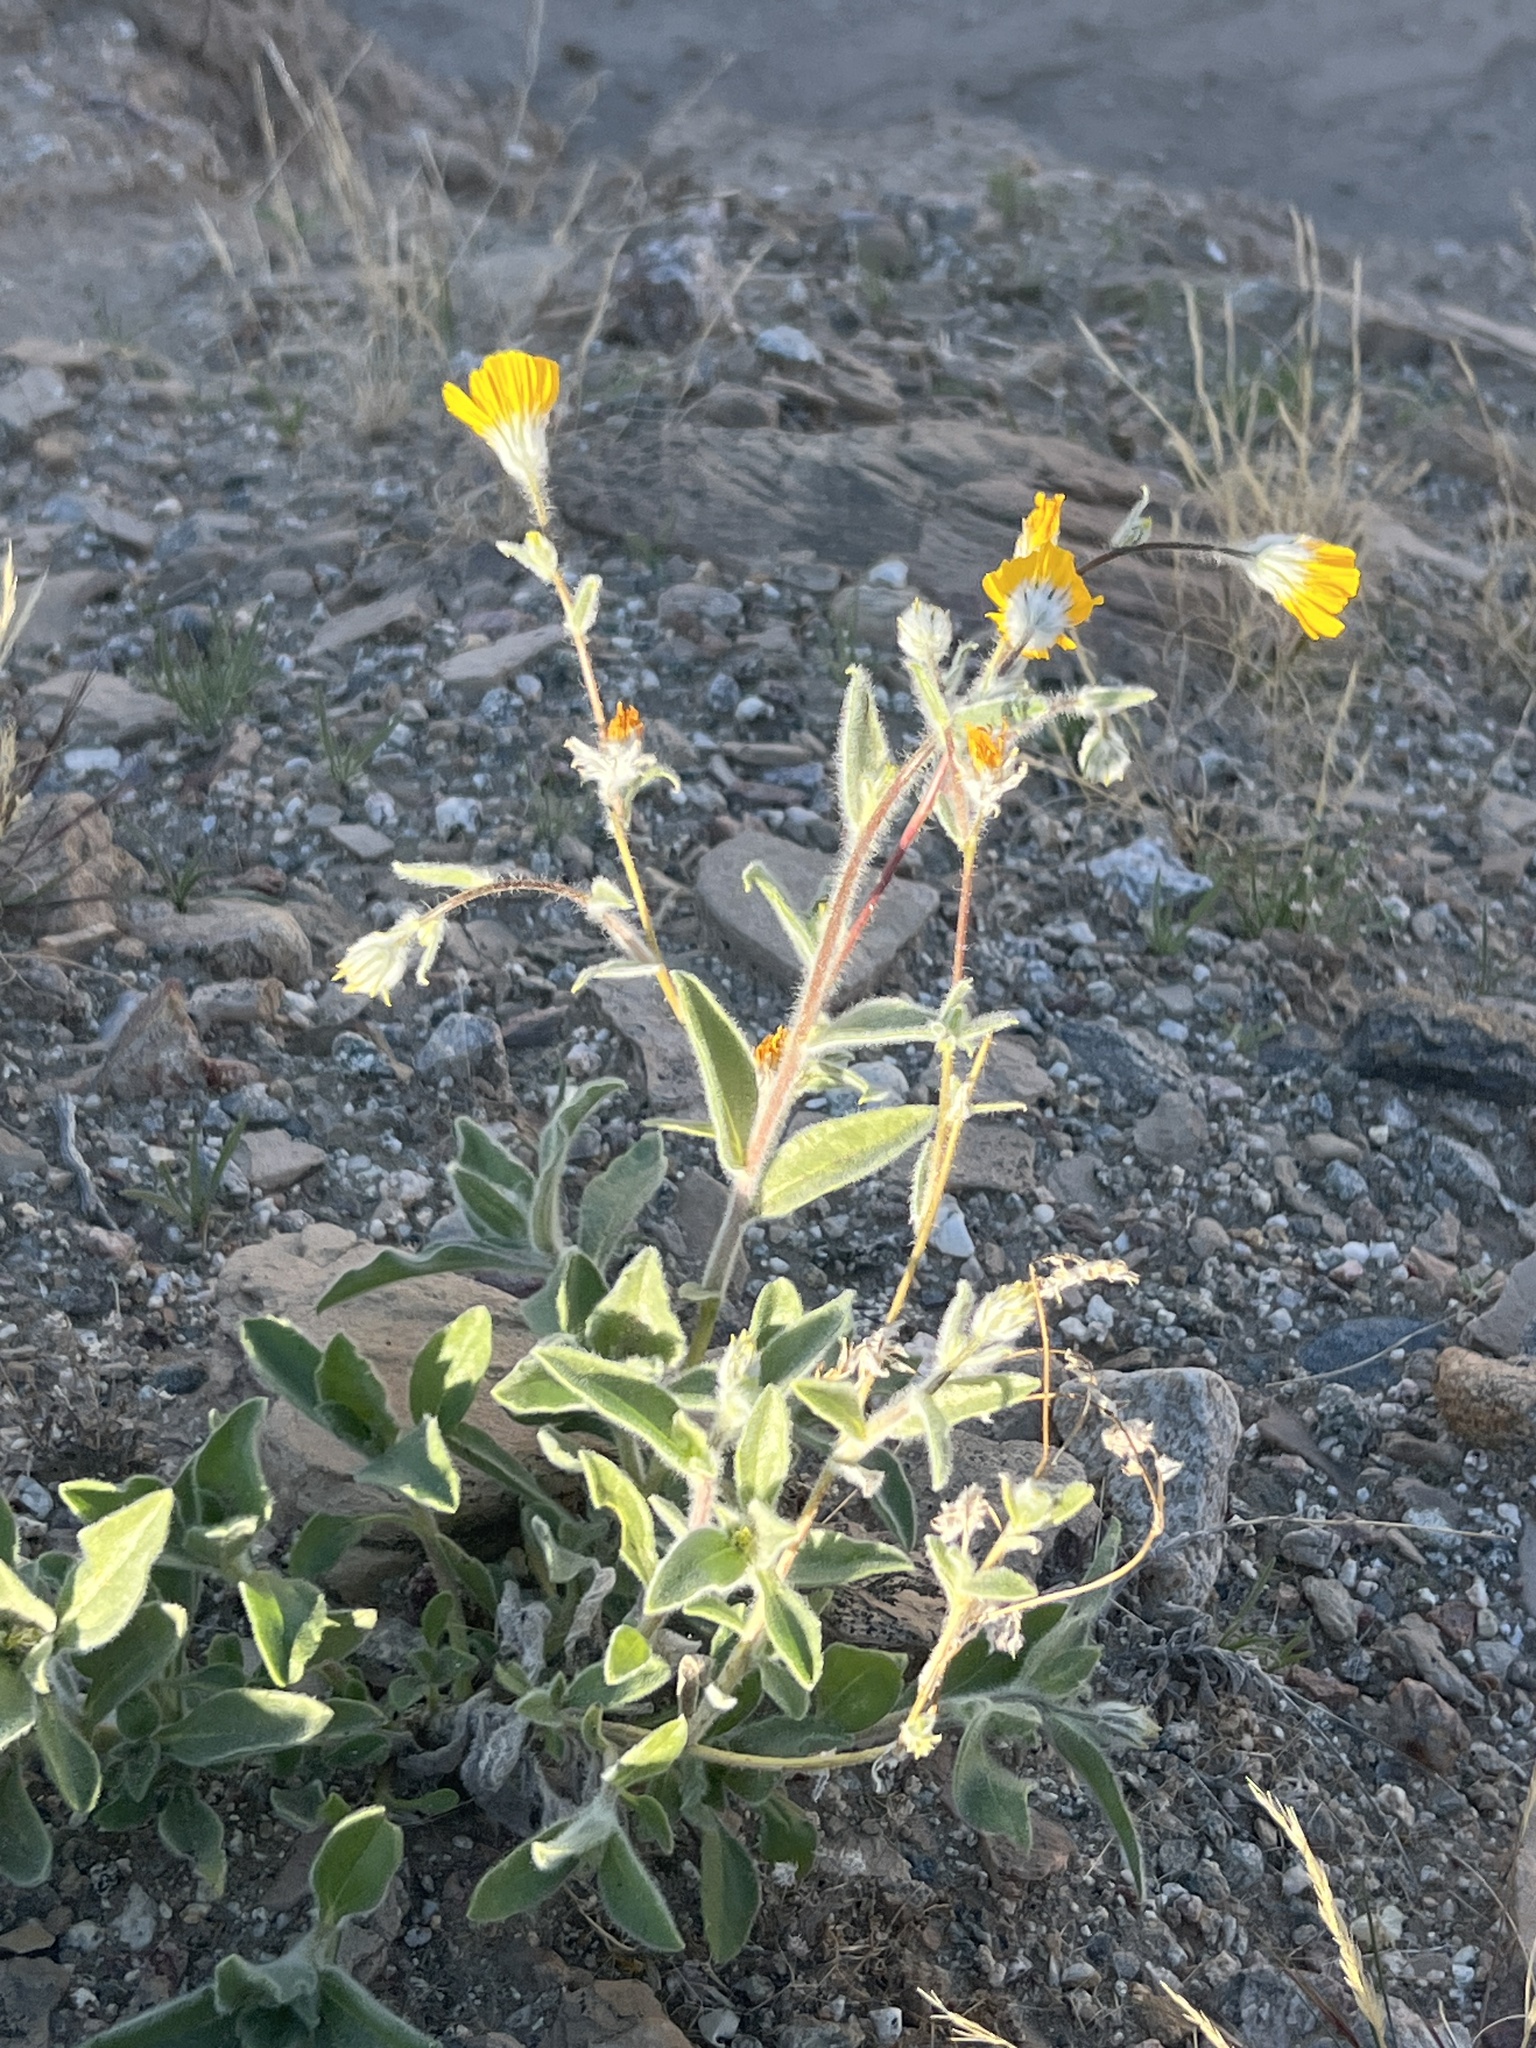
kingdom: Plantae
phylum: Tracheophyta
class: Magnoliopsida
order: Asterales
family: Asteraceae
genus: Geraea
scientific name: Geraea canescens
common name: Desert-gold
